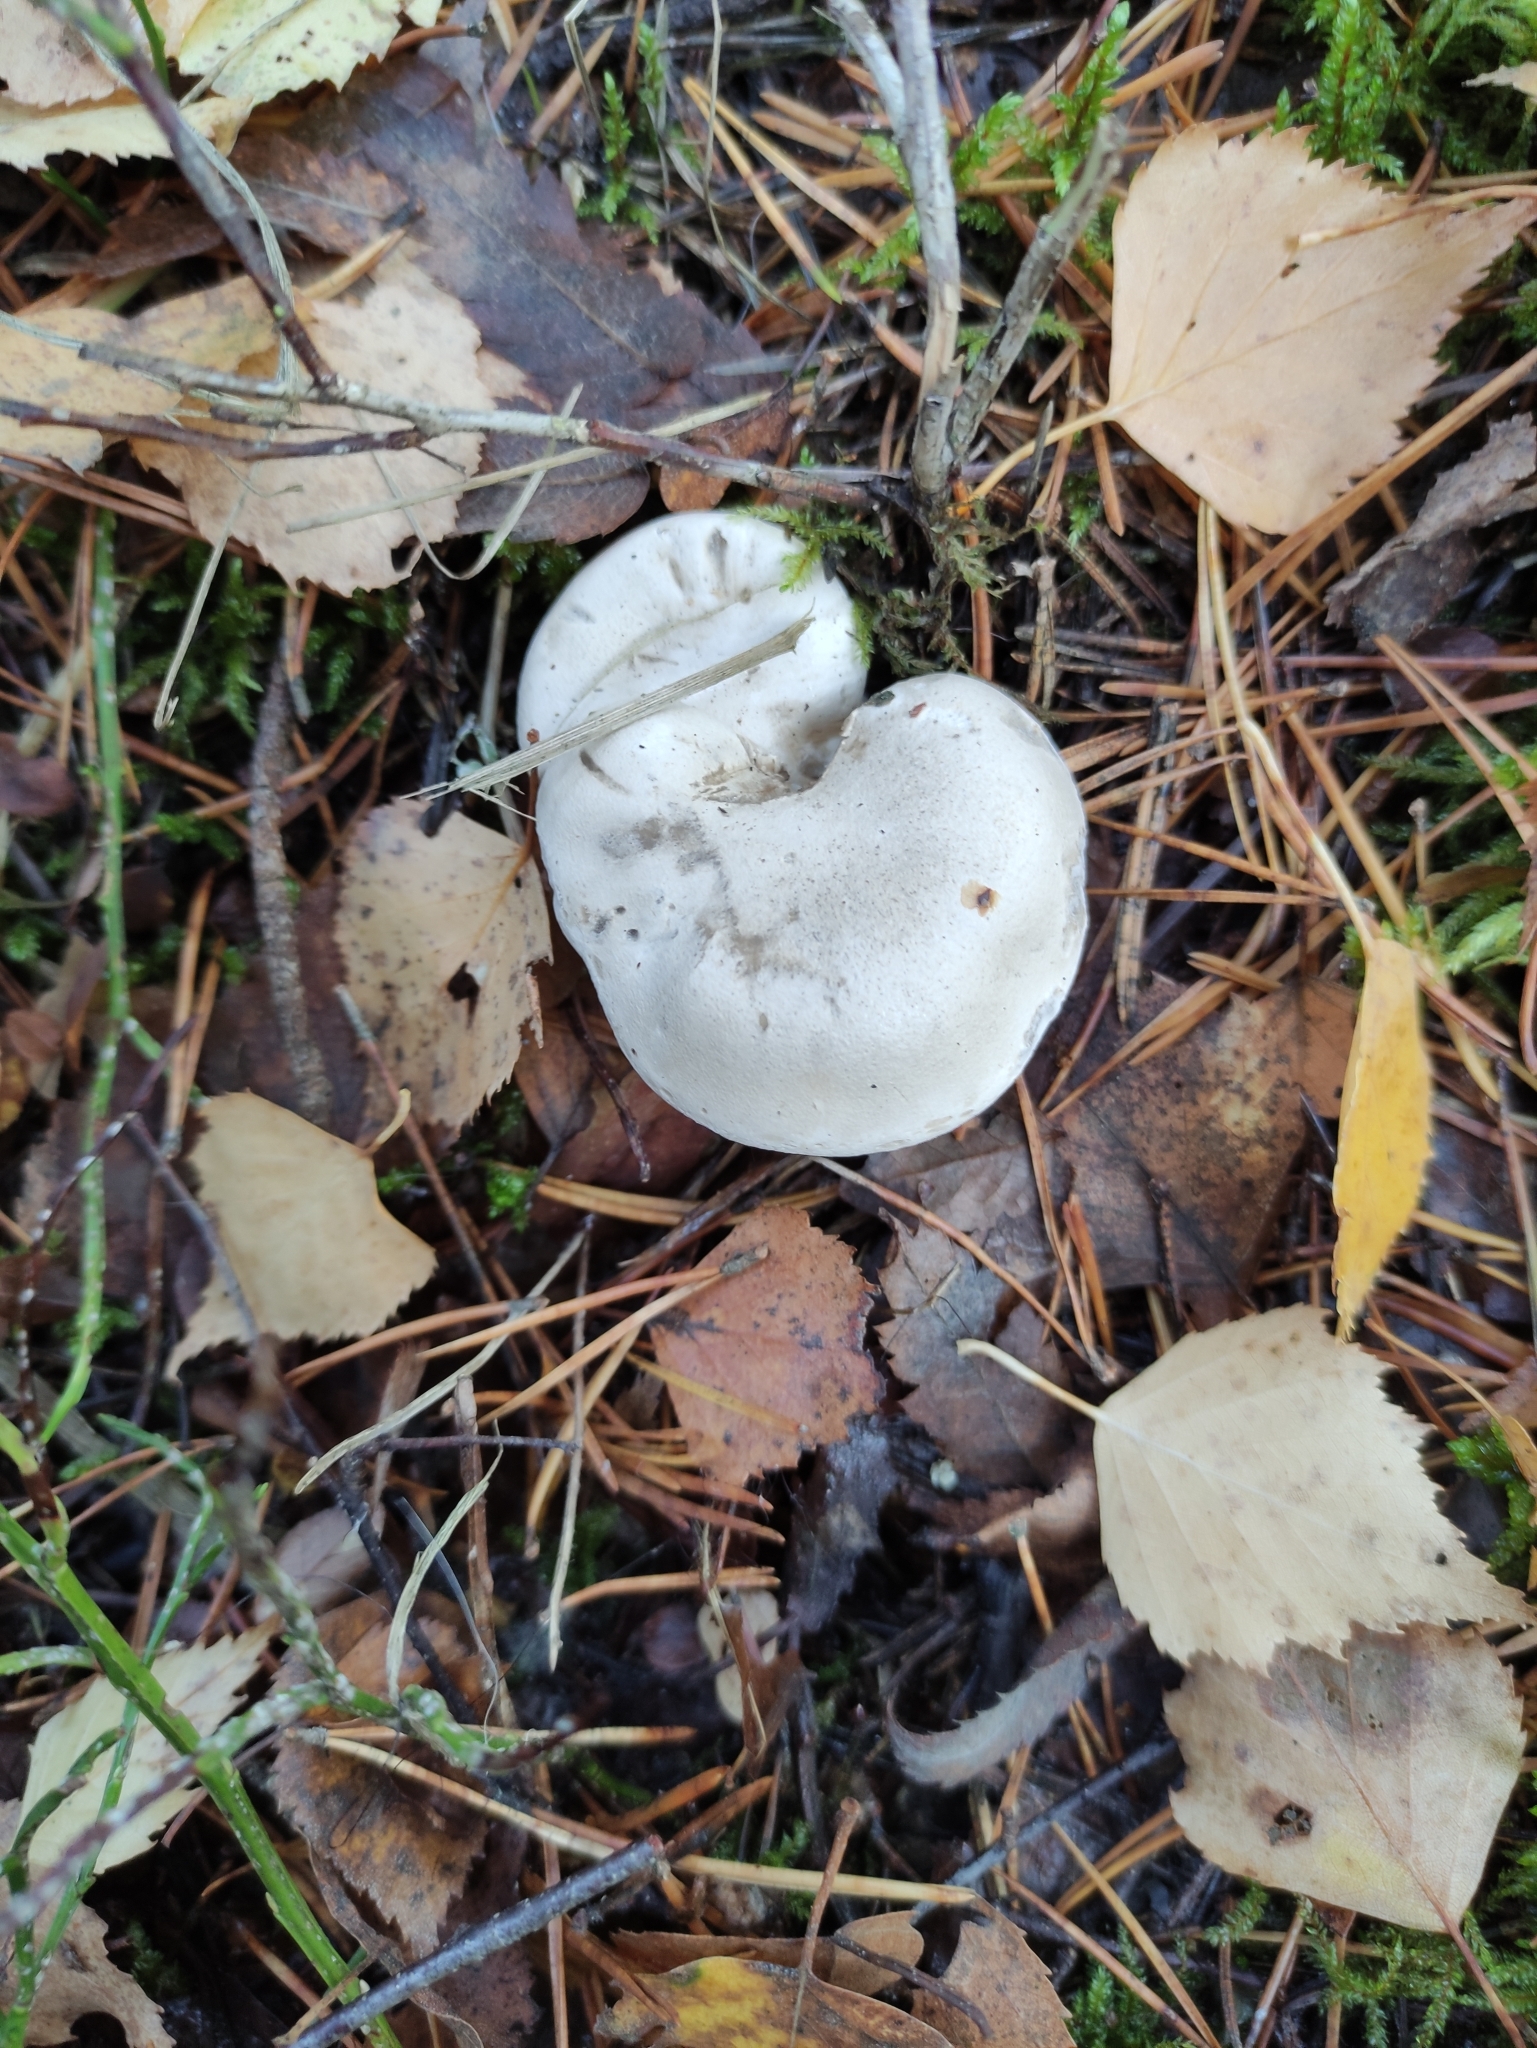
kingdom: Fungi
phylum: Basidiomycota
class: Agaricomycetes
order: Agaricales
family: Entolomataceae
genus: Clitopilus
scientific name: Clitopilus prunulus
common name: The miller
